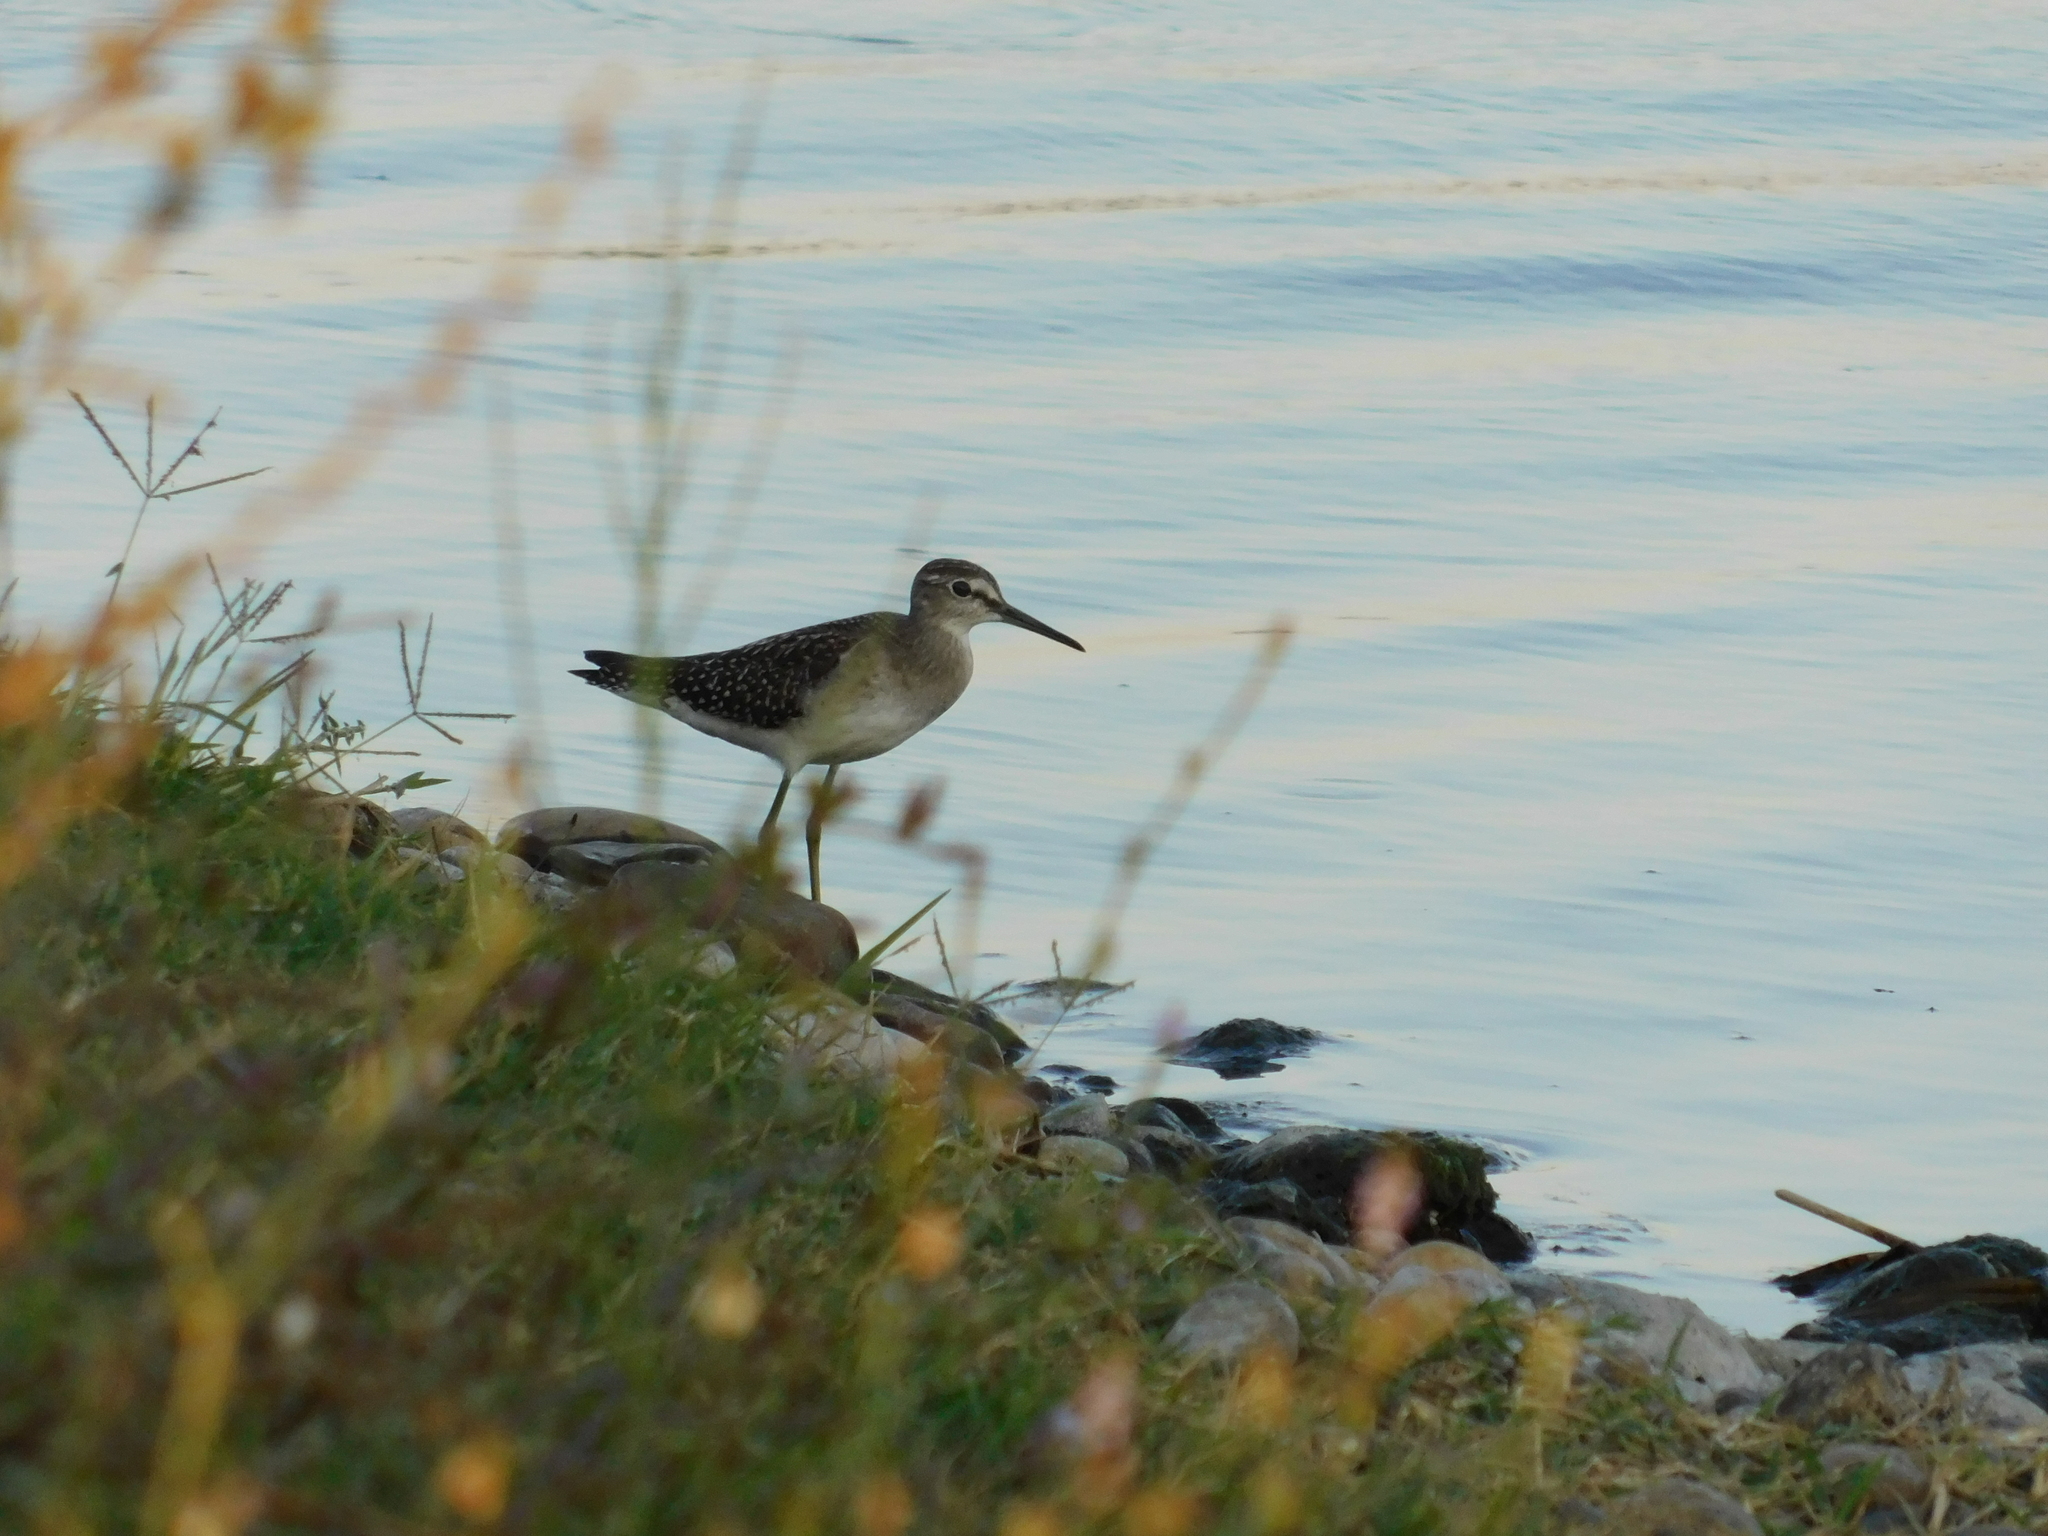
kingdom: Animalia
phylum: Chordata
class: Aves
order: Charadriiformes
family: Scolopacidae
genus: Tringa
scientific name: Tringa glareola
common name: Wood sandpiper
